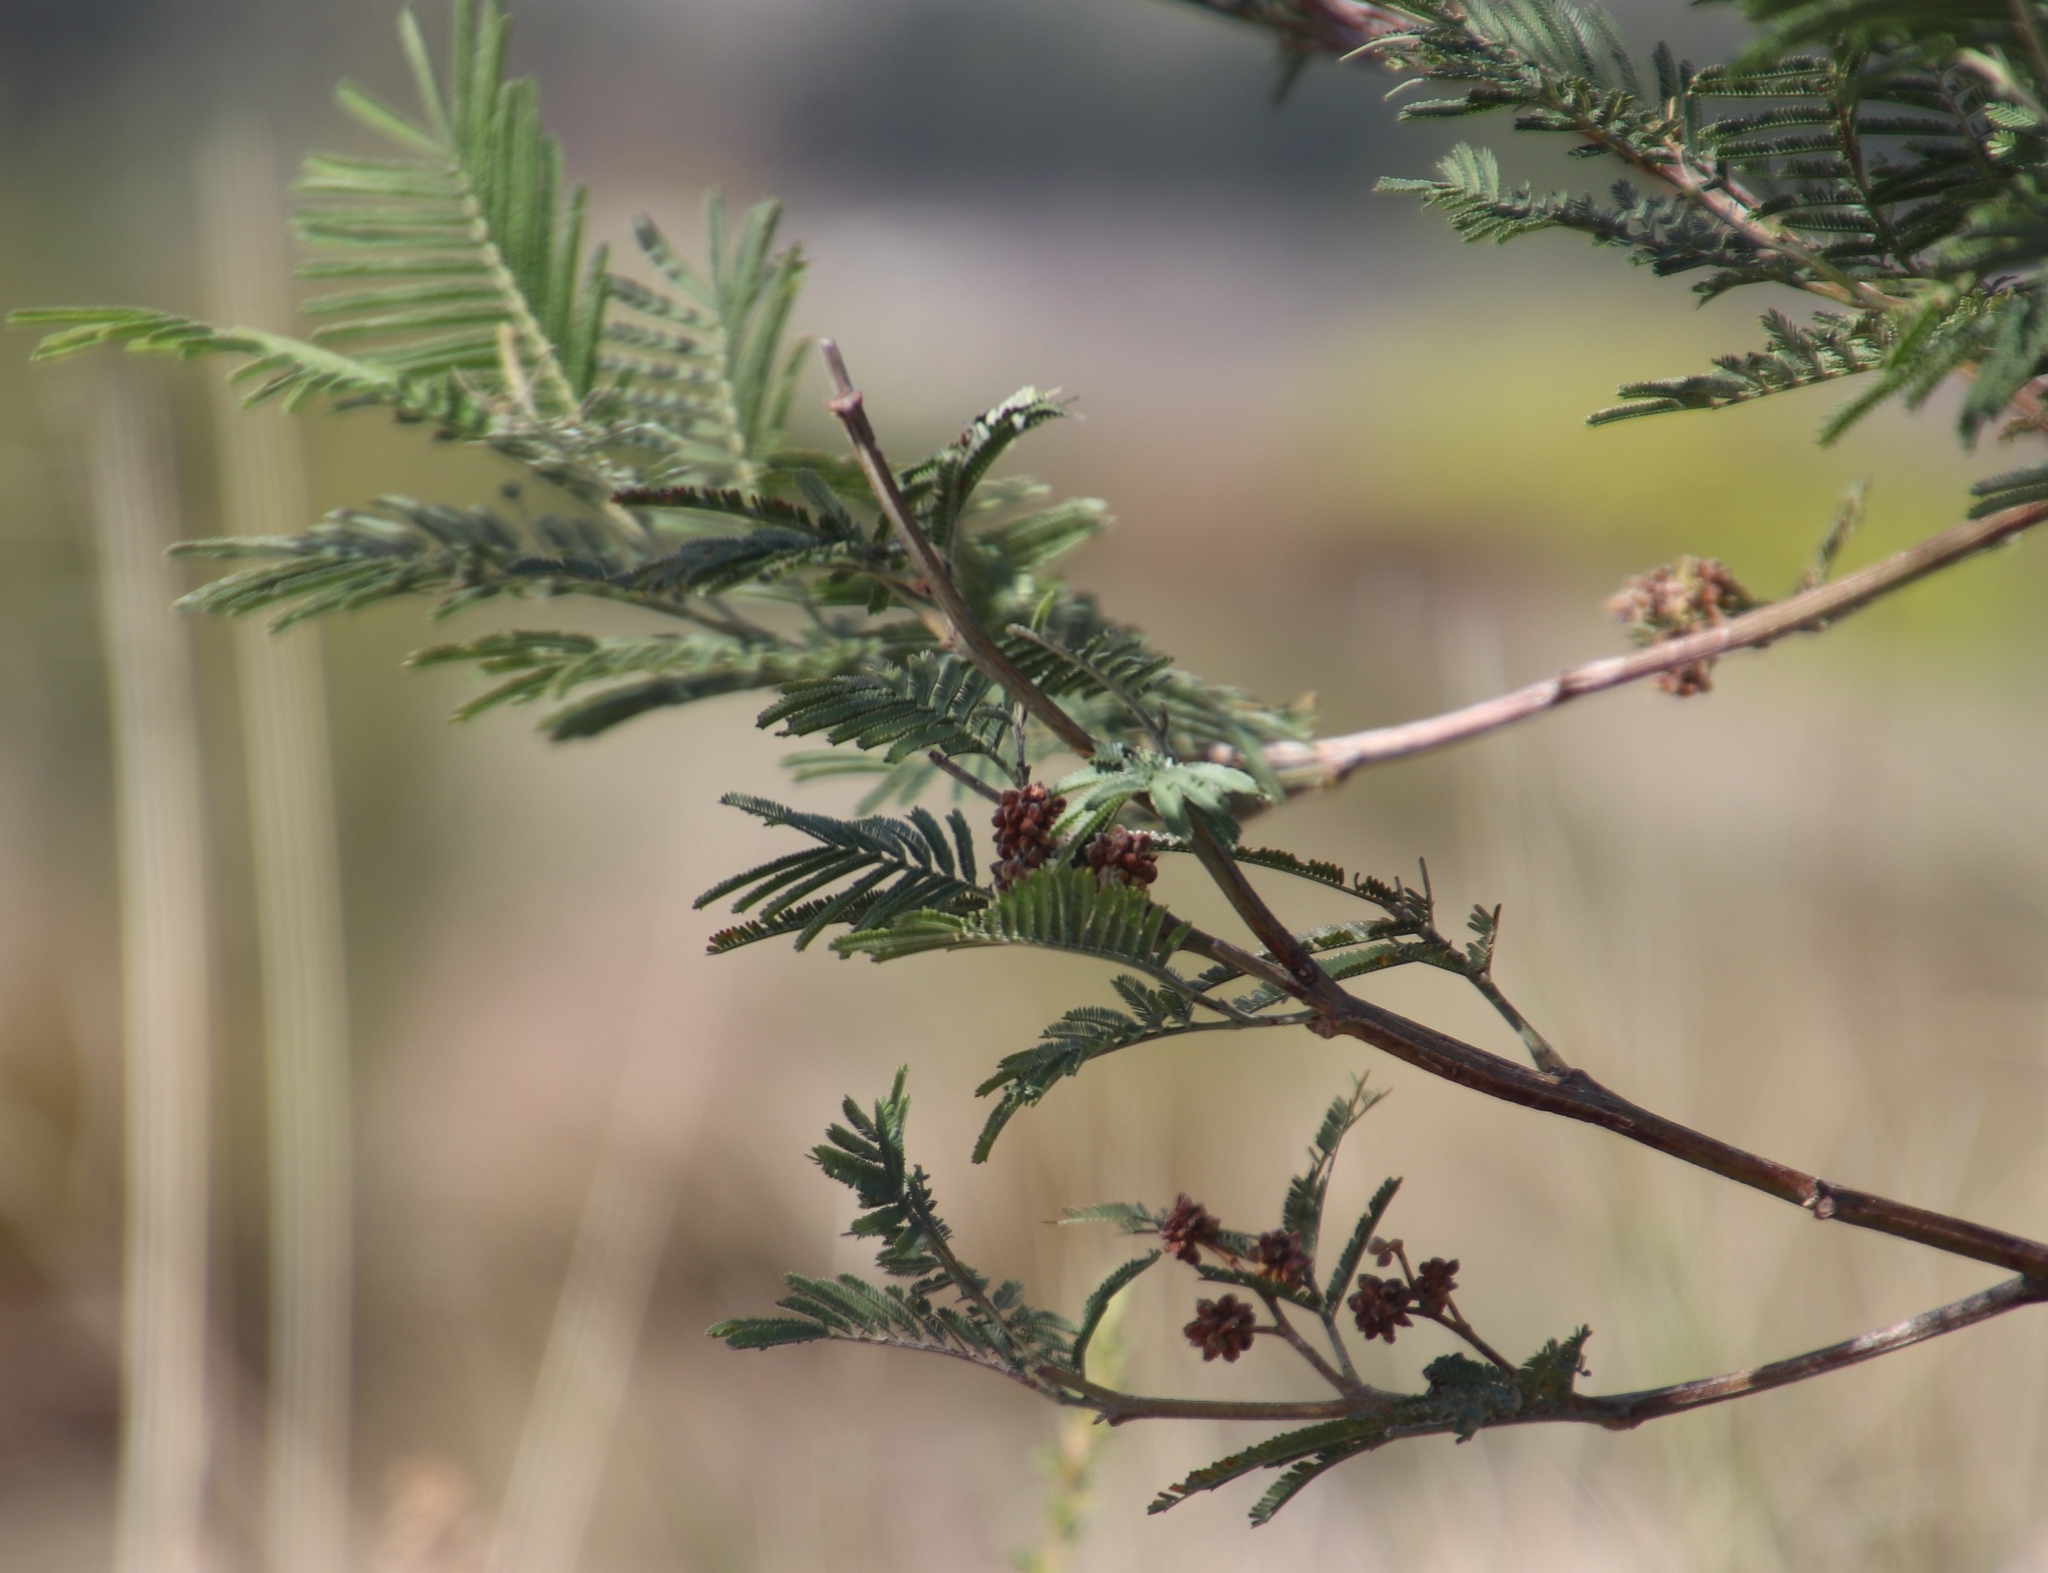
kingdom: Animalia
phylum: Arthropoda
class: Insecta
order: Diptera
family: Cecidomyiidae
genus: Dasineura
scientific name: Dasineura rubiformis
